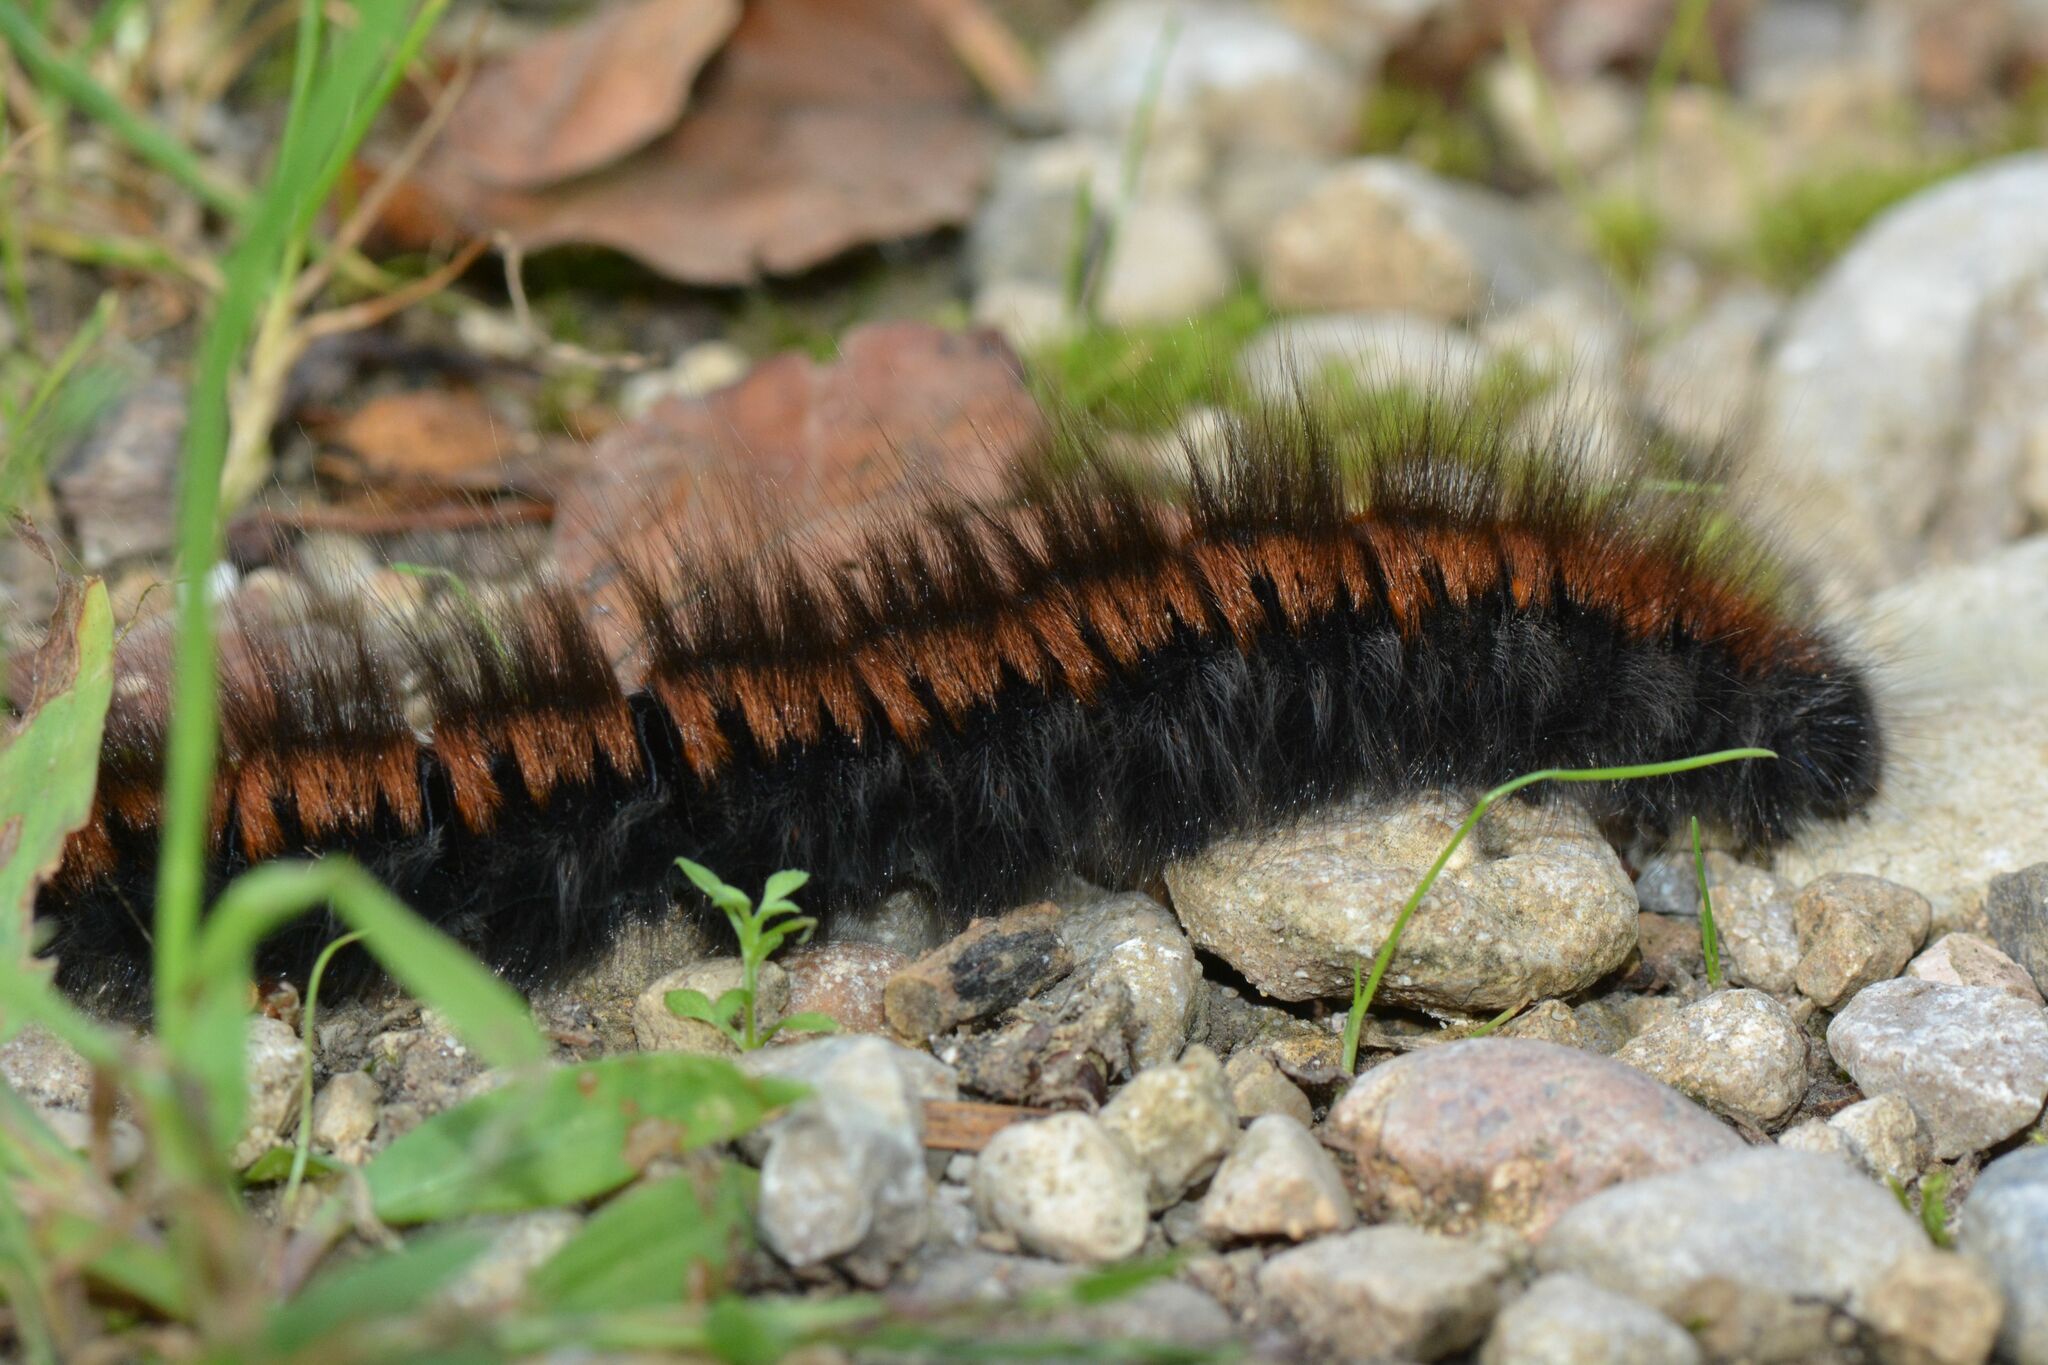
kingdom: Animalia
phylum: Arthropoda
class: Insecta
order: Lepidoptera
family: Lasiocampidae
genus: Macrothylacia
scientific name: Macrothylacia rubi
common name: Fox moth
